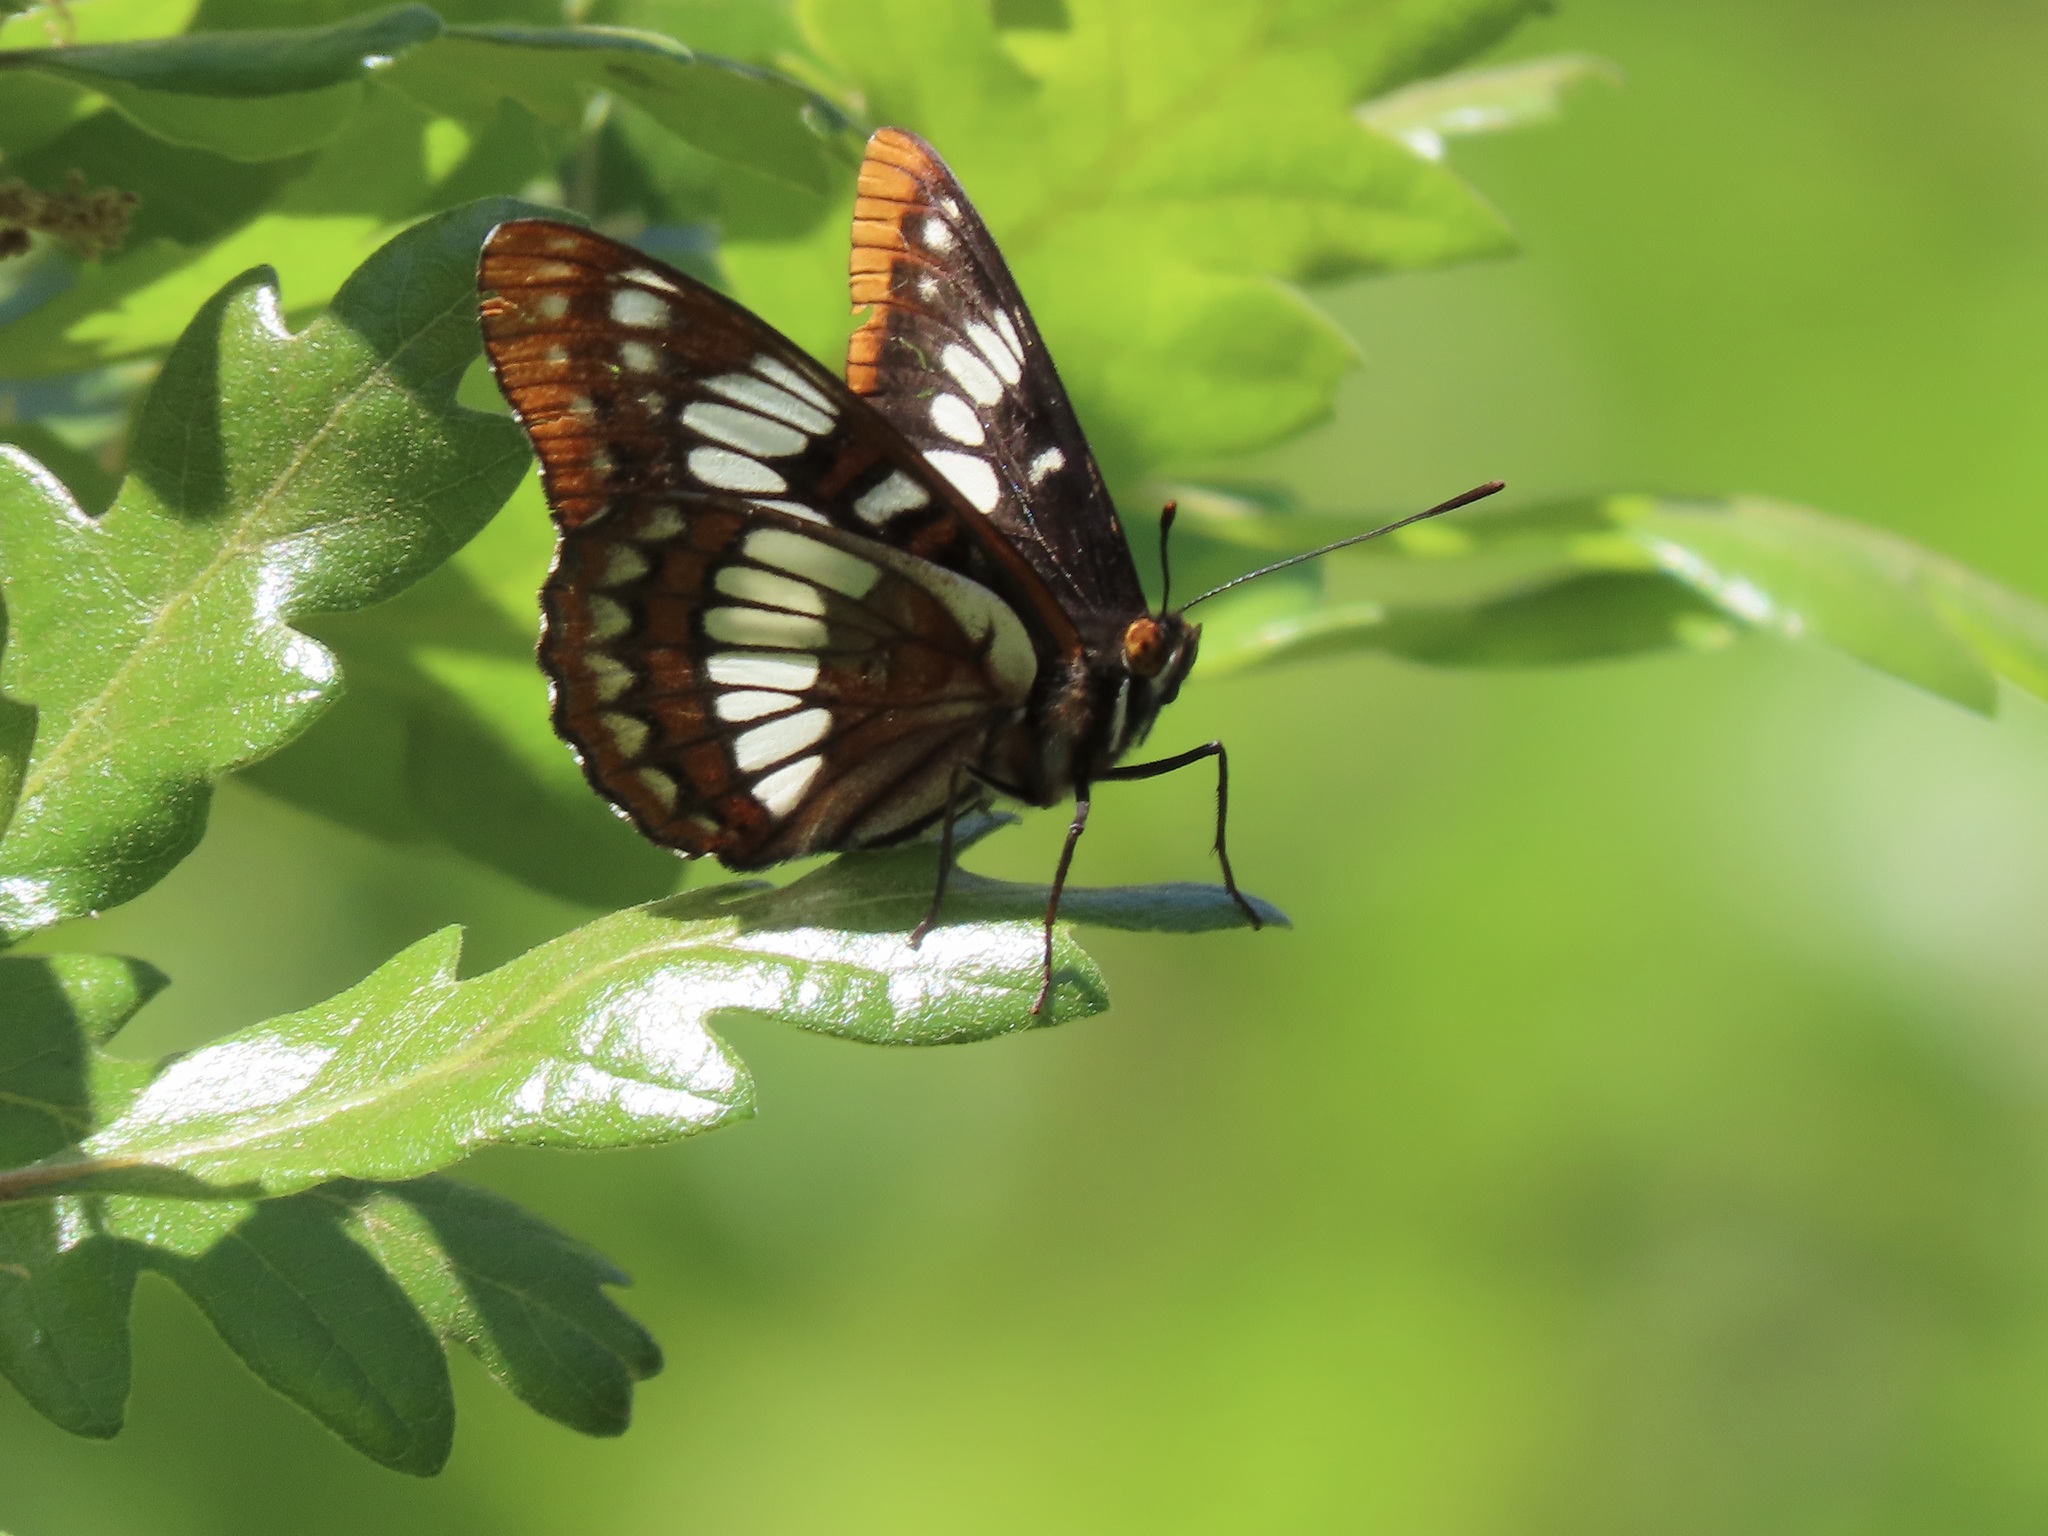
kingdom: Animalia
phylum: Arthropoda
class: Insecta
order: Lepidoptera
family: Nymphalidae
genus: Limenitis
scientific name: Limenitis lorquini
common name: Lorquin's admiral
